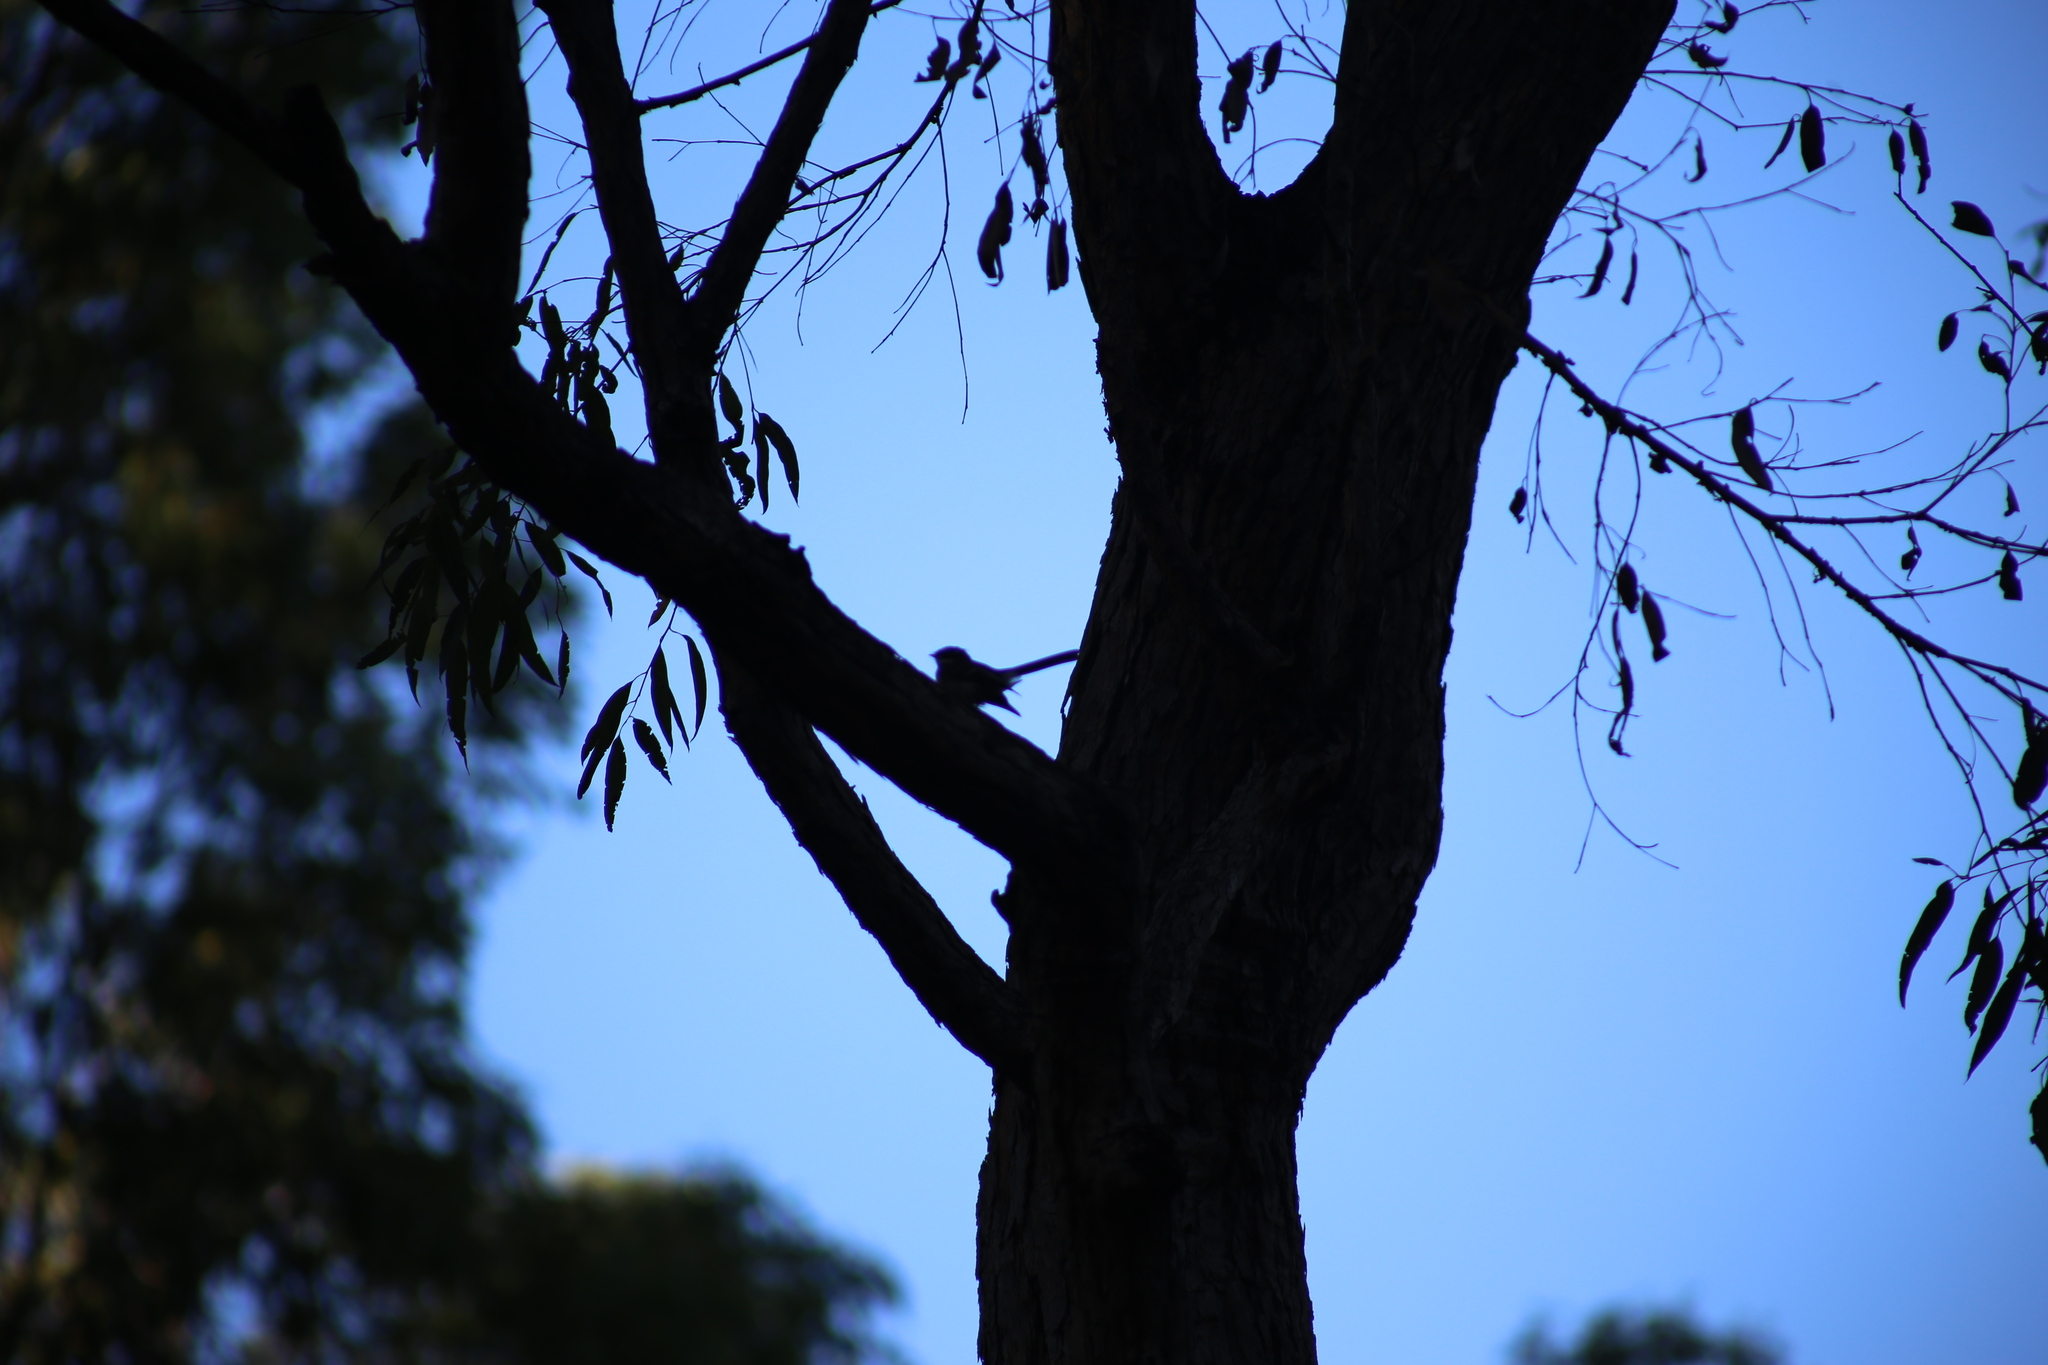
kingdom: Animalia
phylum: Chordata
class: Aves
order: Passeriformes
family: Rhipiduridae
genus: Rhipidura
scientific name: Rhipidura albiscapa
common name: Grey fantail
